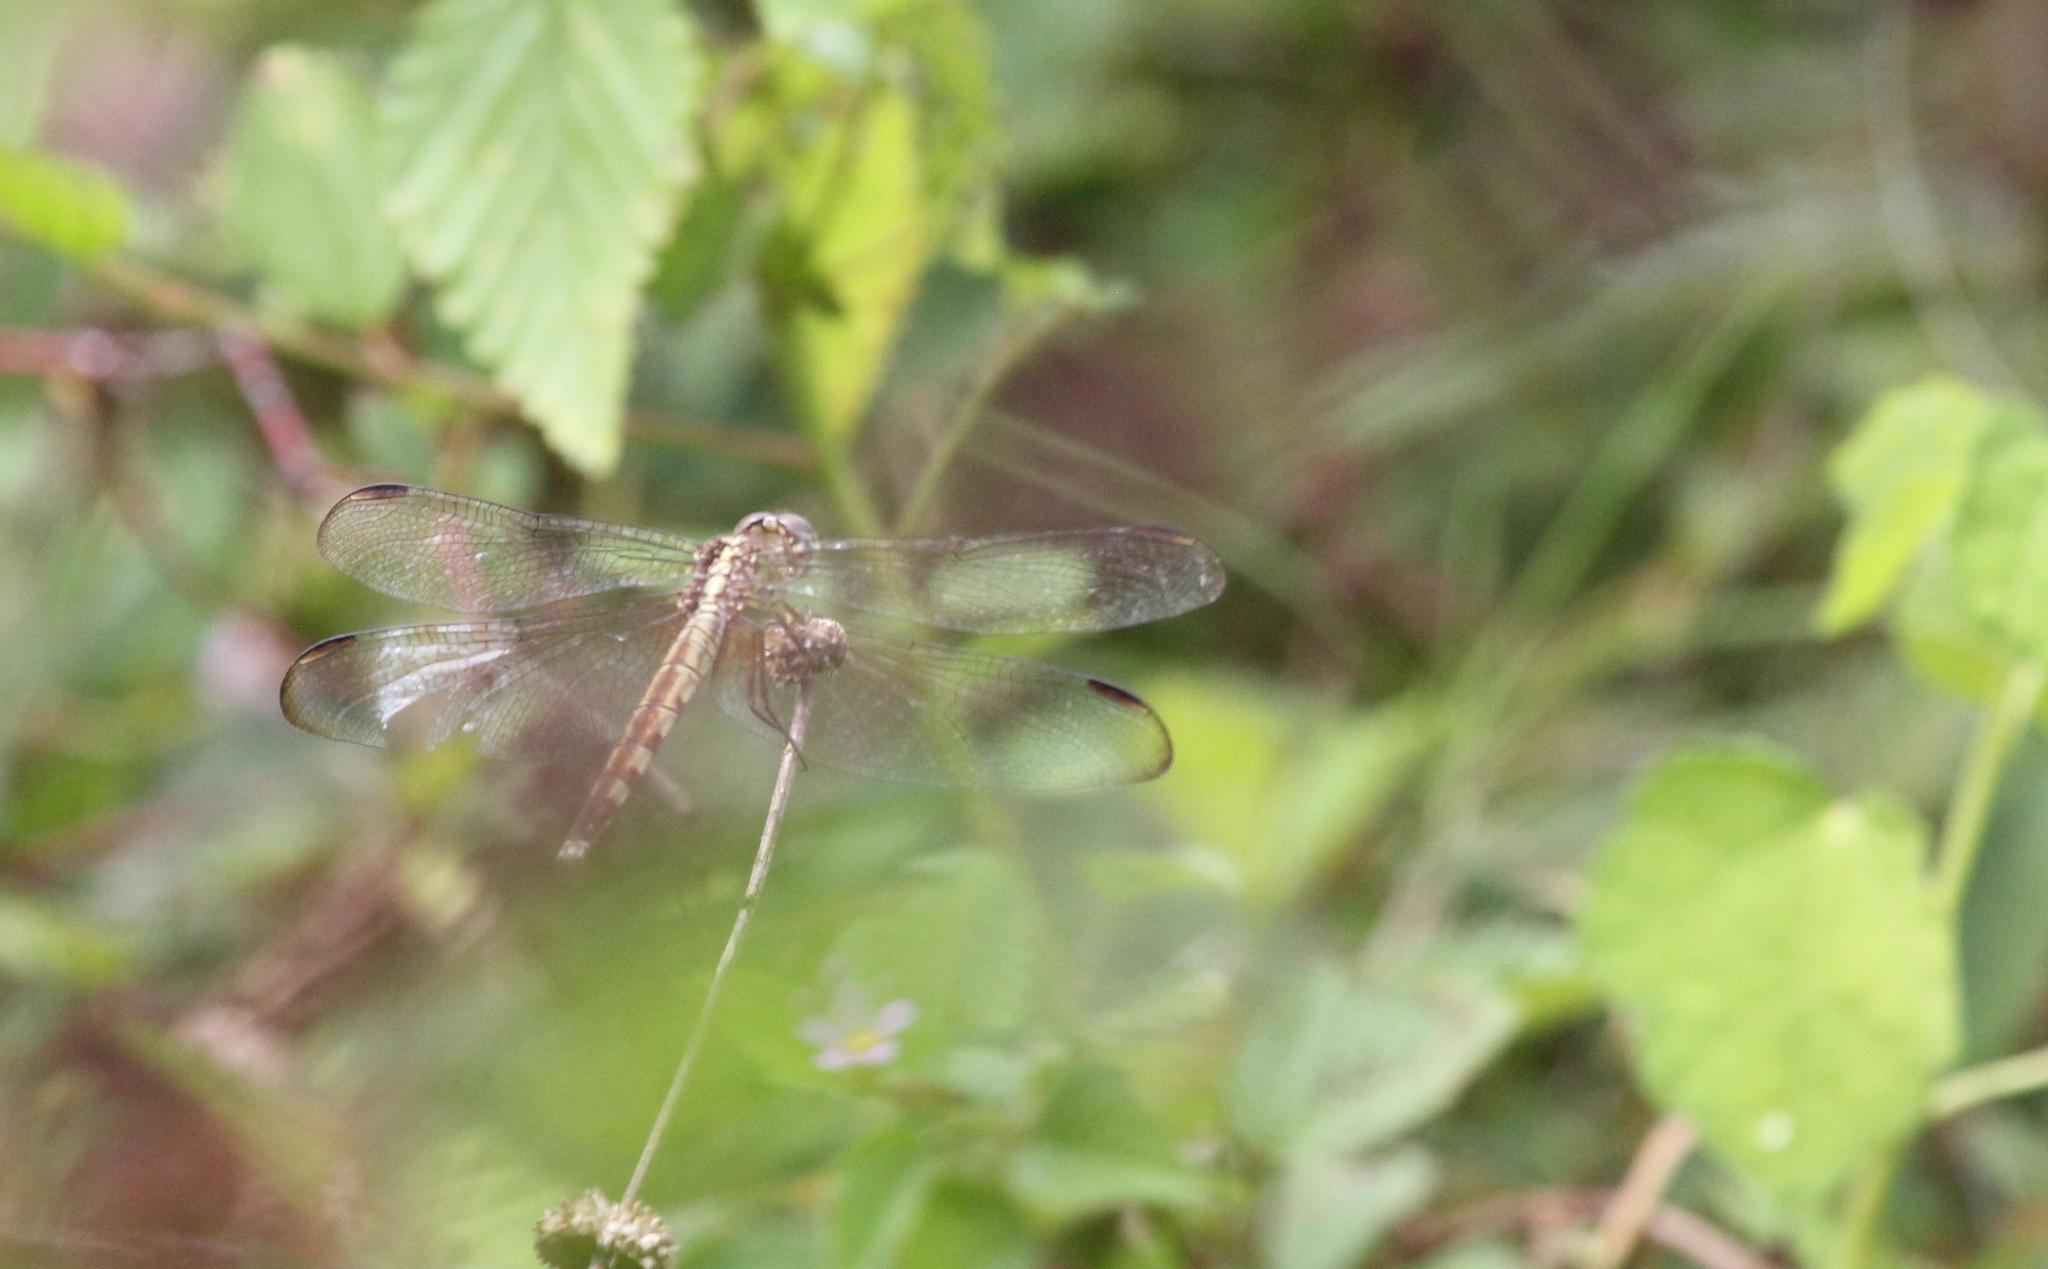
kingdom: Animalia
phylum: Arthropoda
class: Insecta
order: Odonata
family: Libellulidae
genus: Erythrodiplax
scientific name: Erythrodiplax umbrata
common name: Band-winged dragonlet
